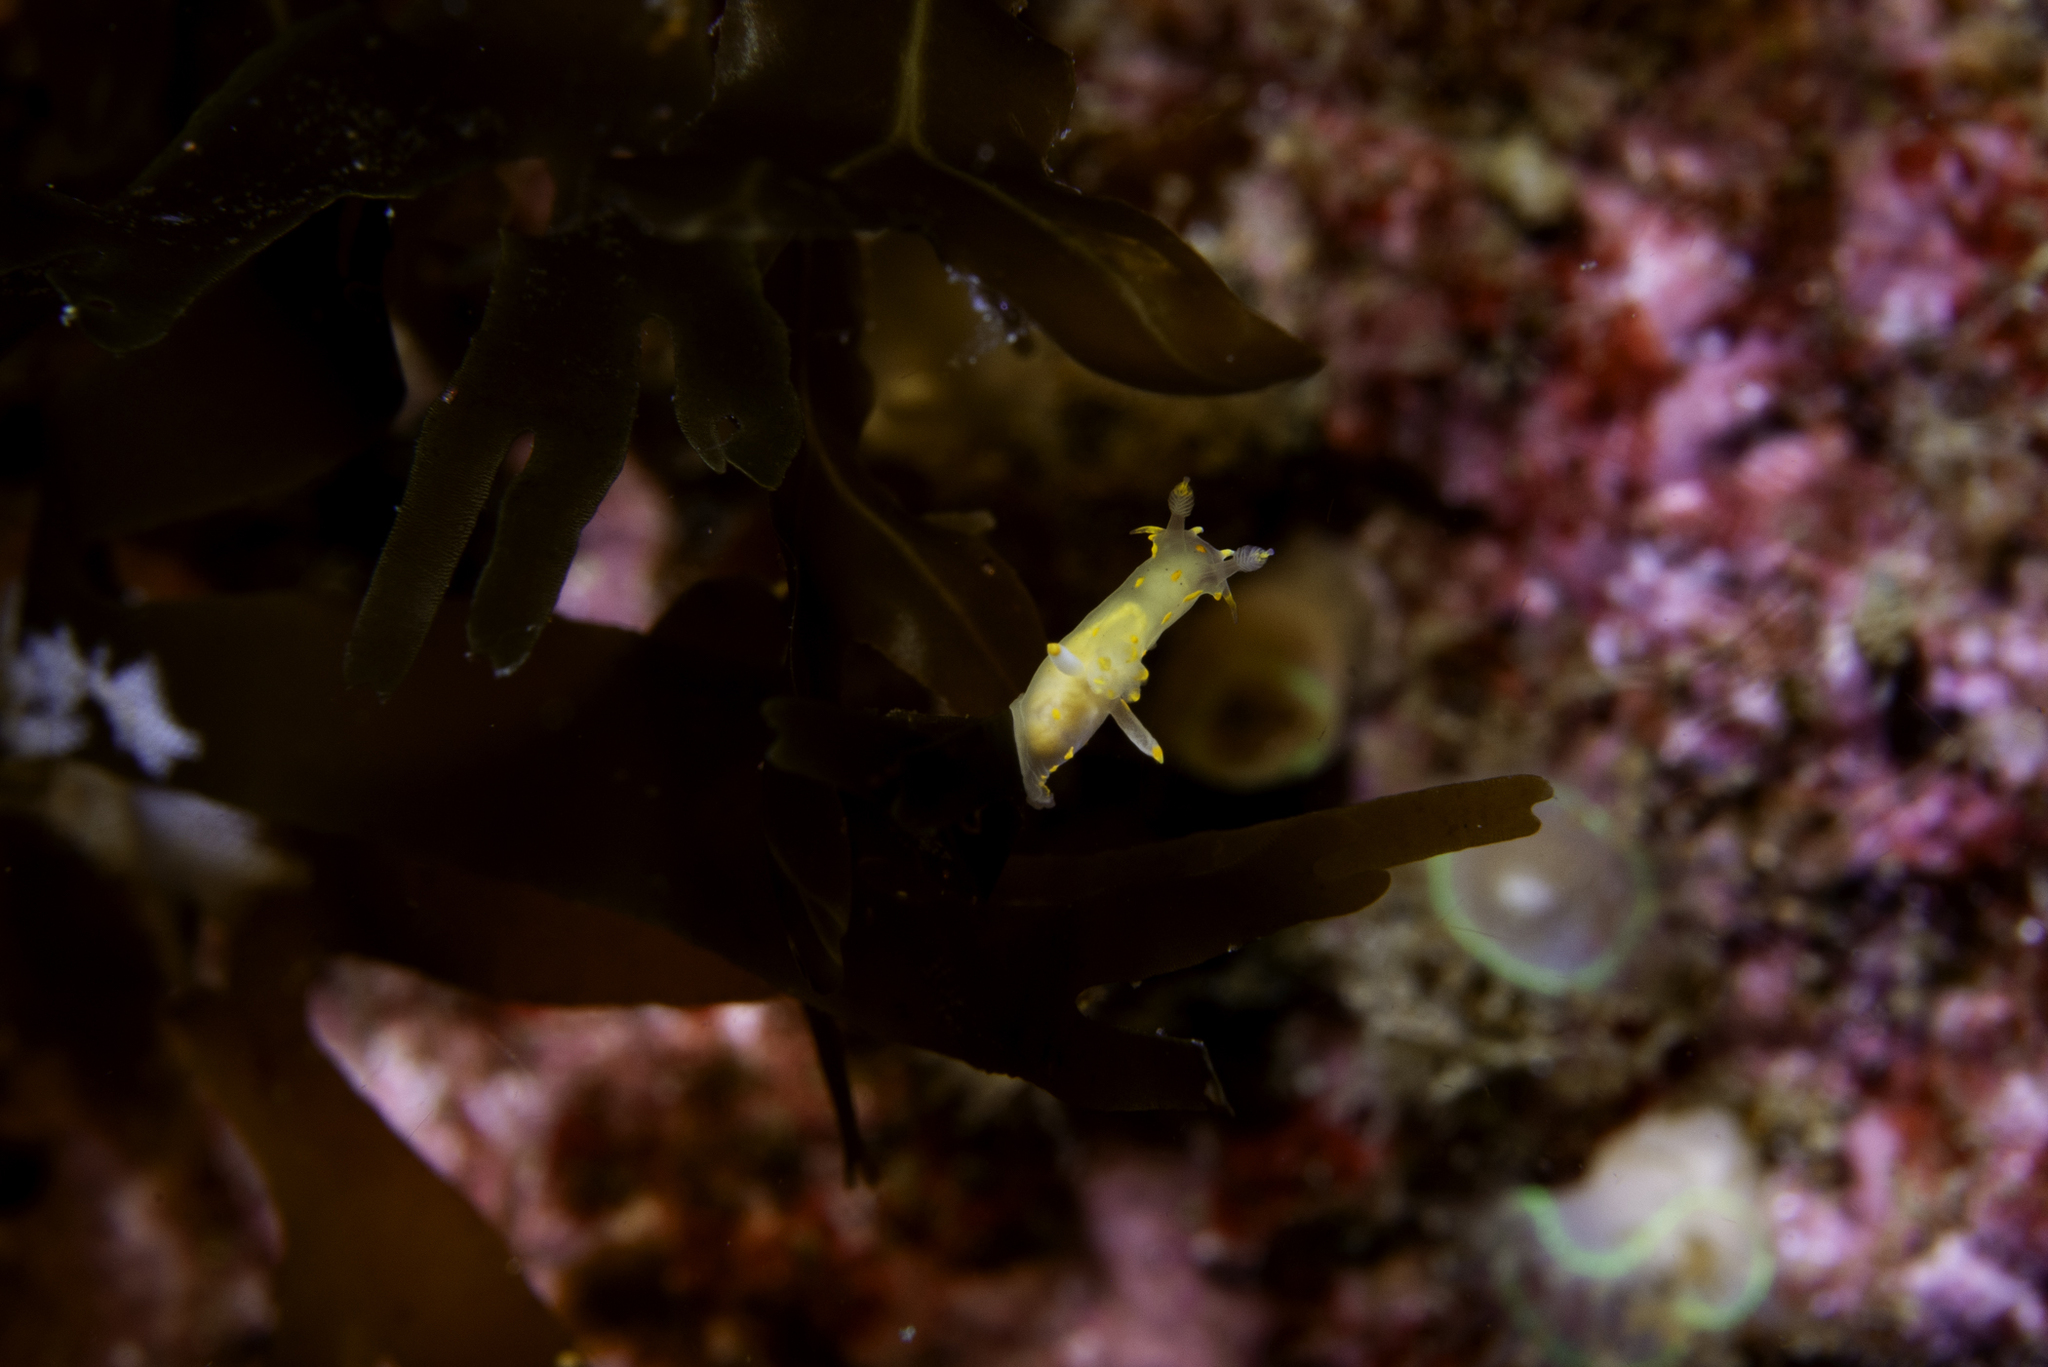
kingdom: Animalia
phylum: Mollusca
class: Gastropoda
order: Nudibranchia
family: Polyceridae
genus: Polycera
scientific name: Polycera norvegica
